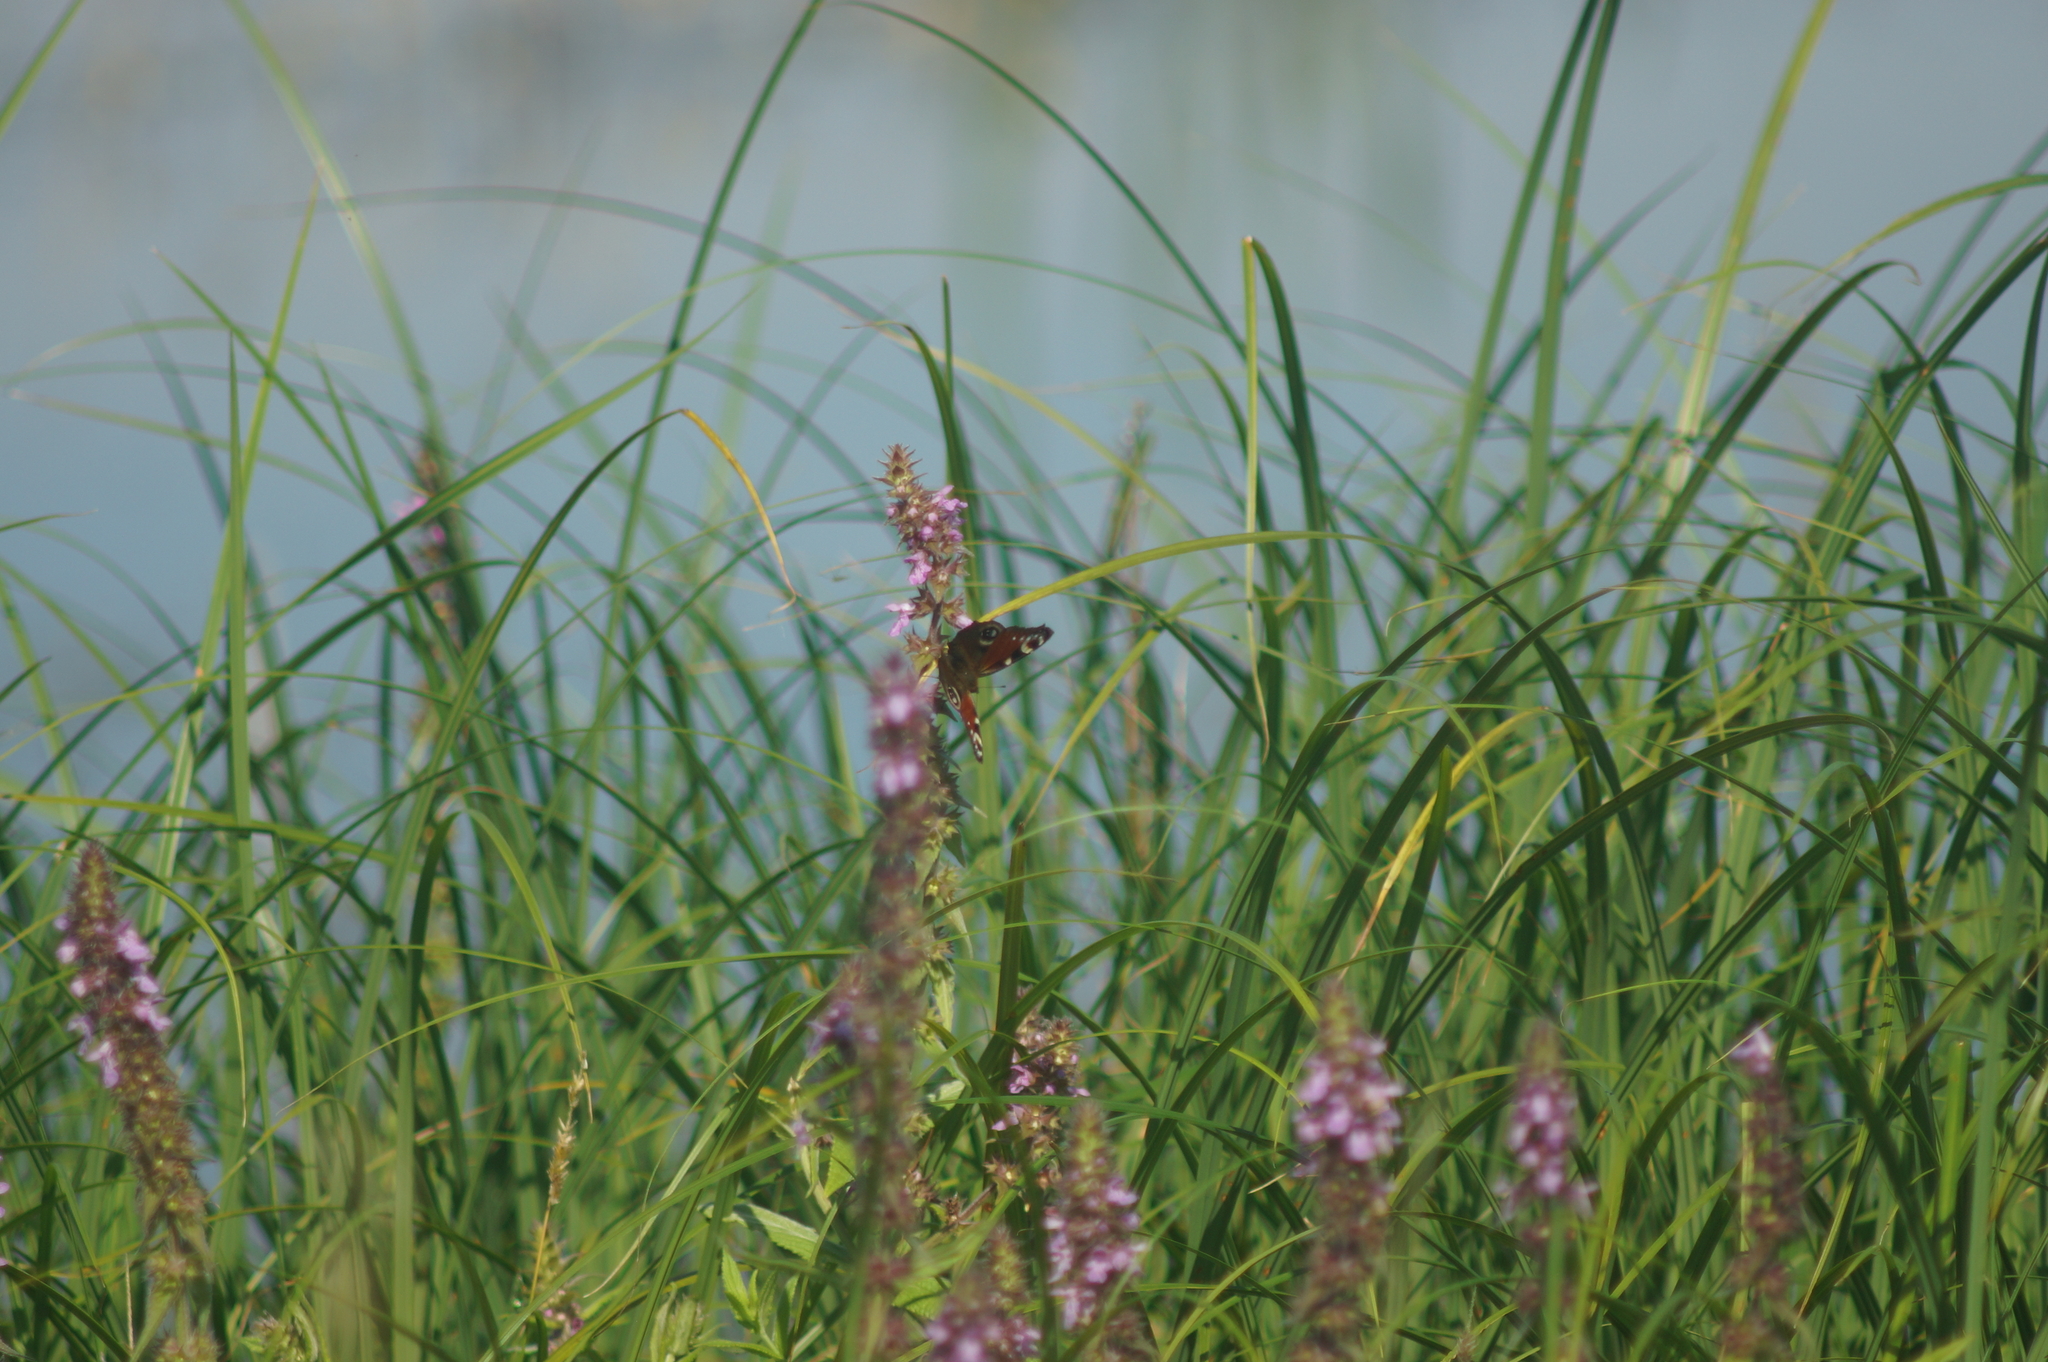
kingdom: Animalia
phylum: Arthropoda
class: Insecta
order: Lepidoptera
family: Nymphalidae
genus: Aglais
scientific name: Aglais io
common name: Peacock
